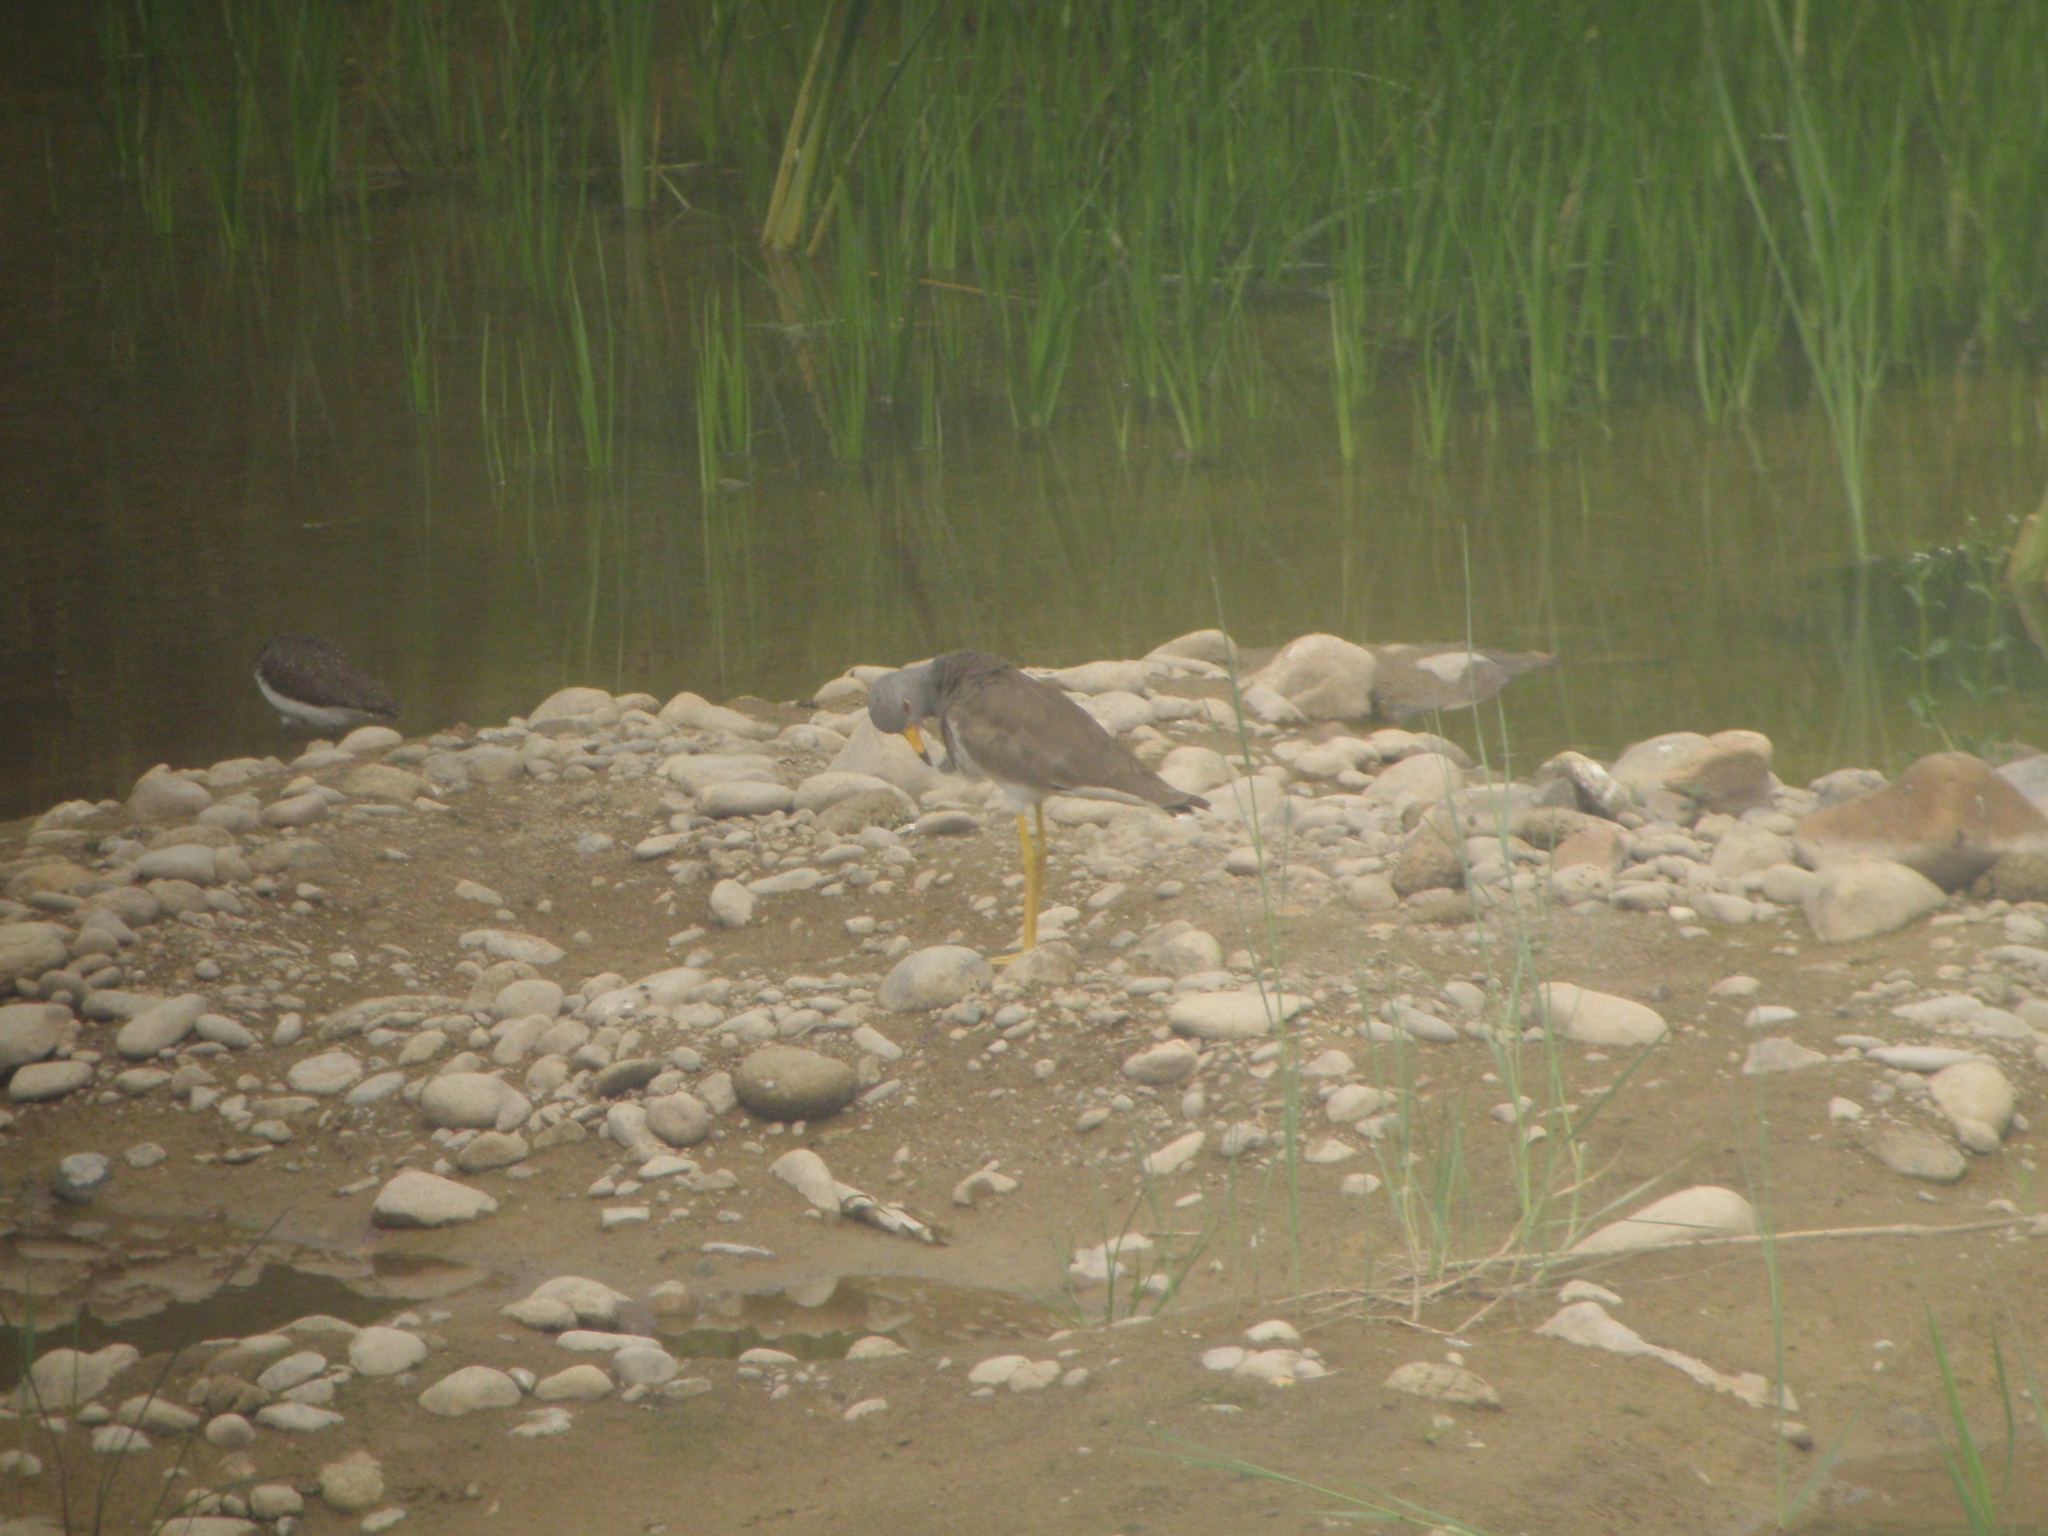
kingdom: Animalia
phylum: Chordata
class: Aves
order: Charadriiformes
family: Charadriidae
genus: Vanellus
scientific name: Vanellus cinereus
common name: Grey-headed lapwing
